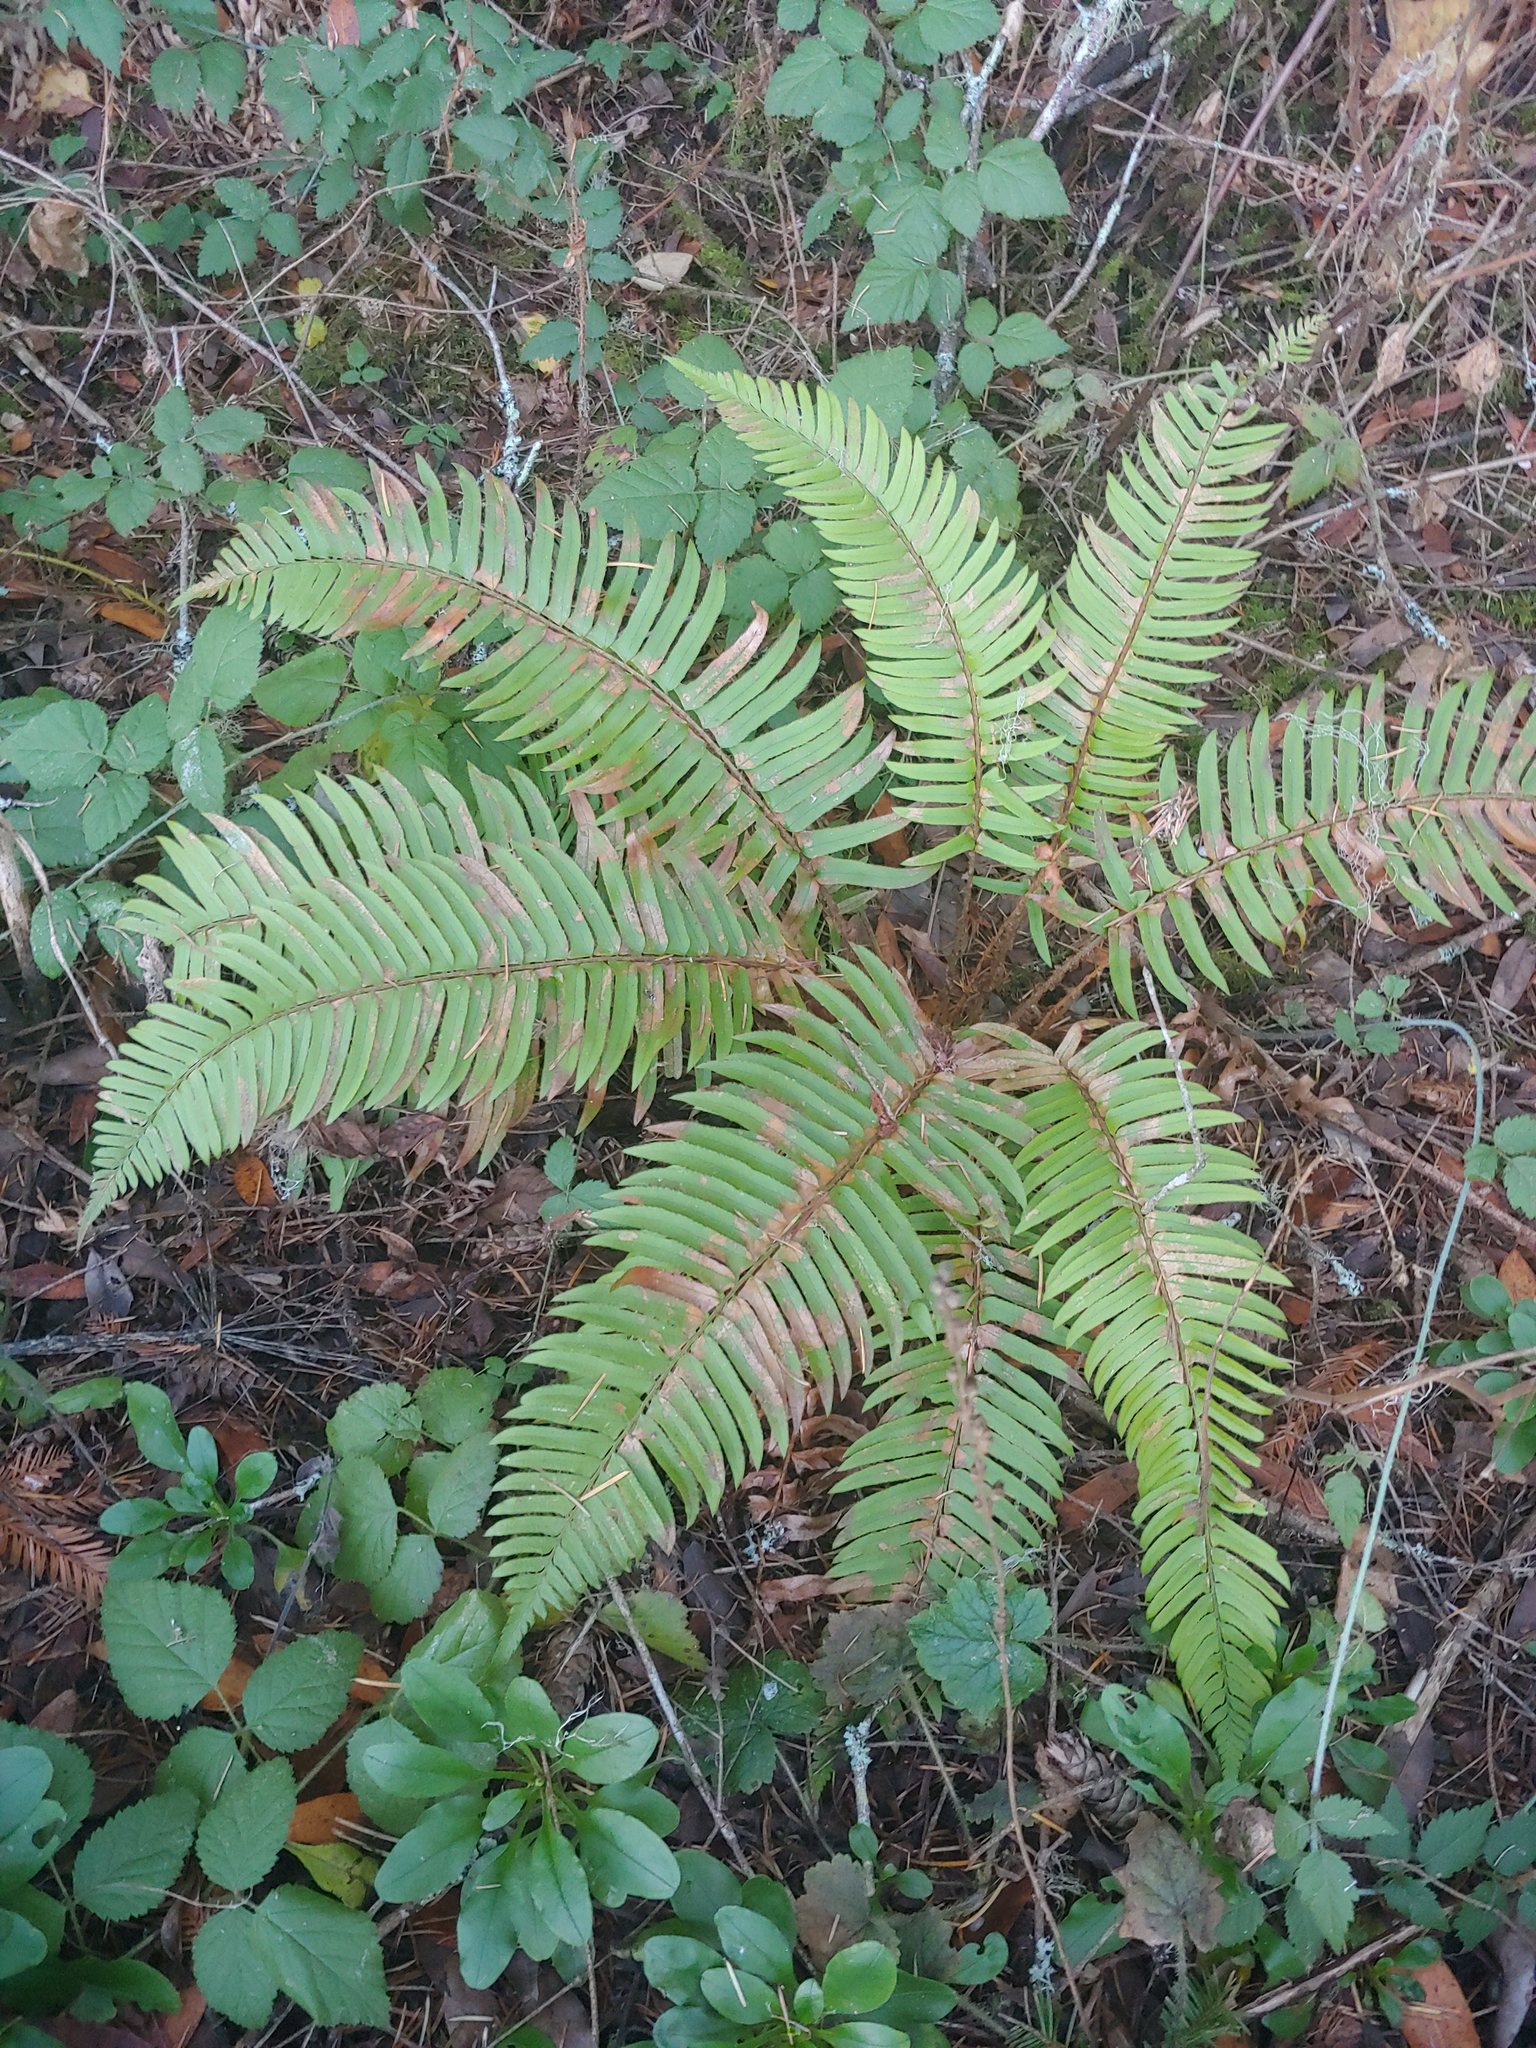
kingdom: Plantae
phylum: Tracheophyta
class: Polypodiopsida
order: Polypodiales
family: Dryopteridaceae
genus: Polystichum
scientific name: Polystichum munitum
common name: Western sword-fern
